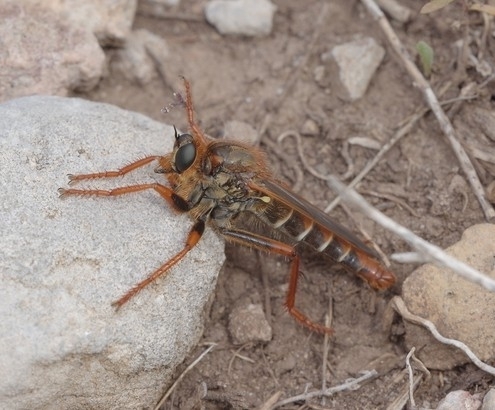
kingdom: Animalia
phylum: Arthropoda
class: Insecta
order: Diptera
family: Asilidae
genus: Stenopogon
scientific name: Stenopogon xanthotrichus
